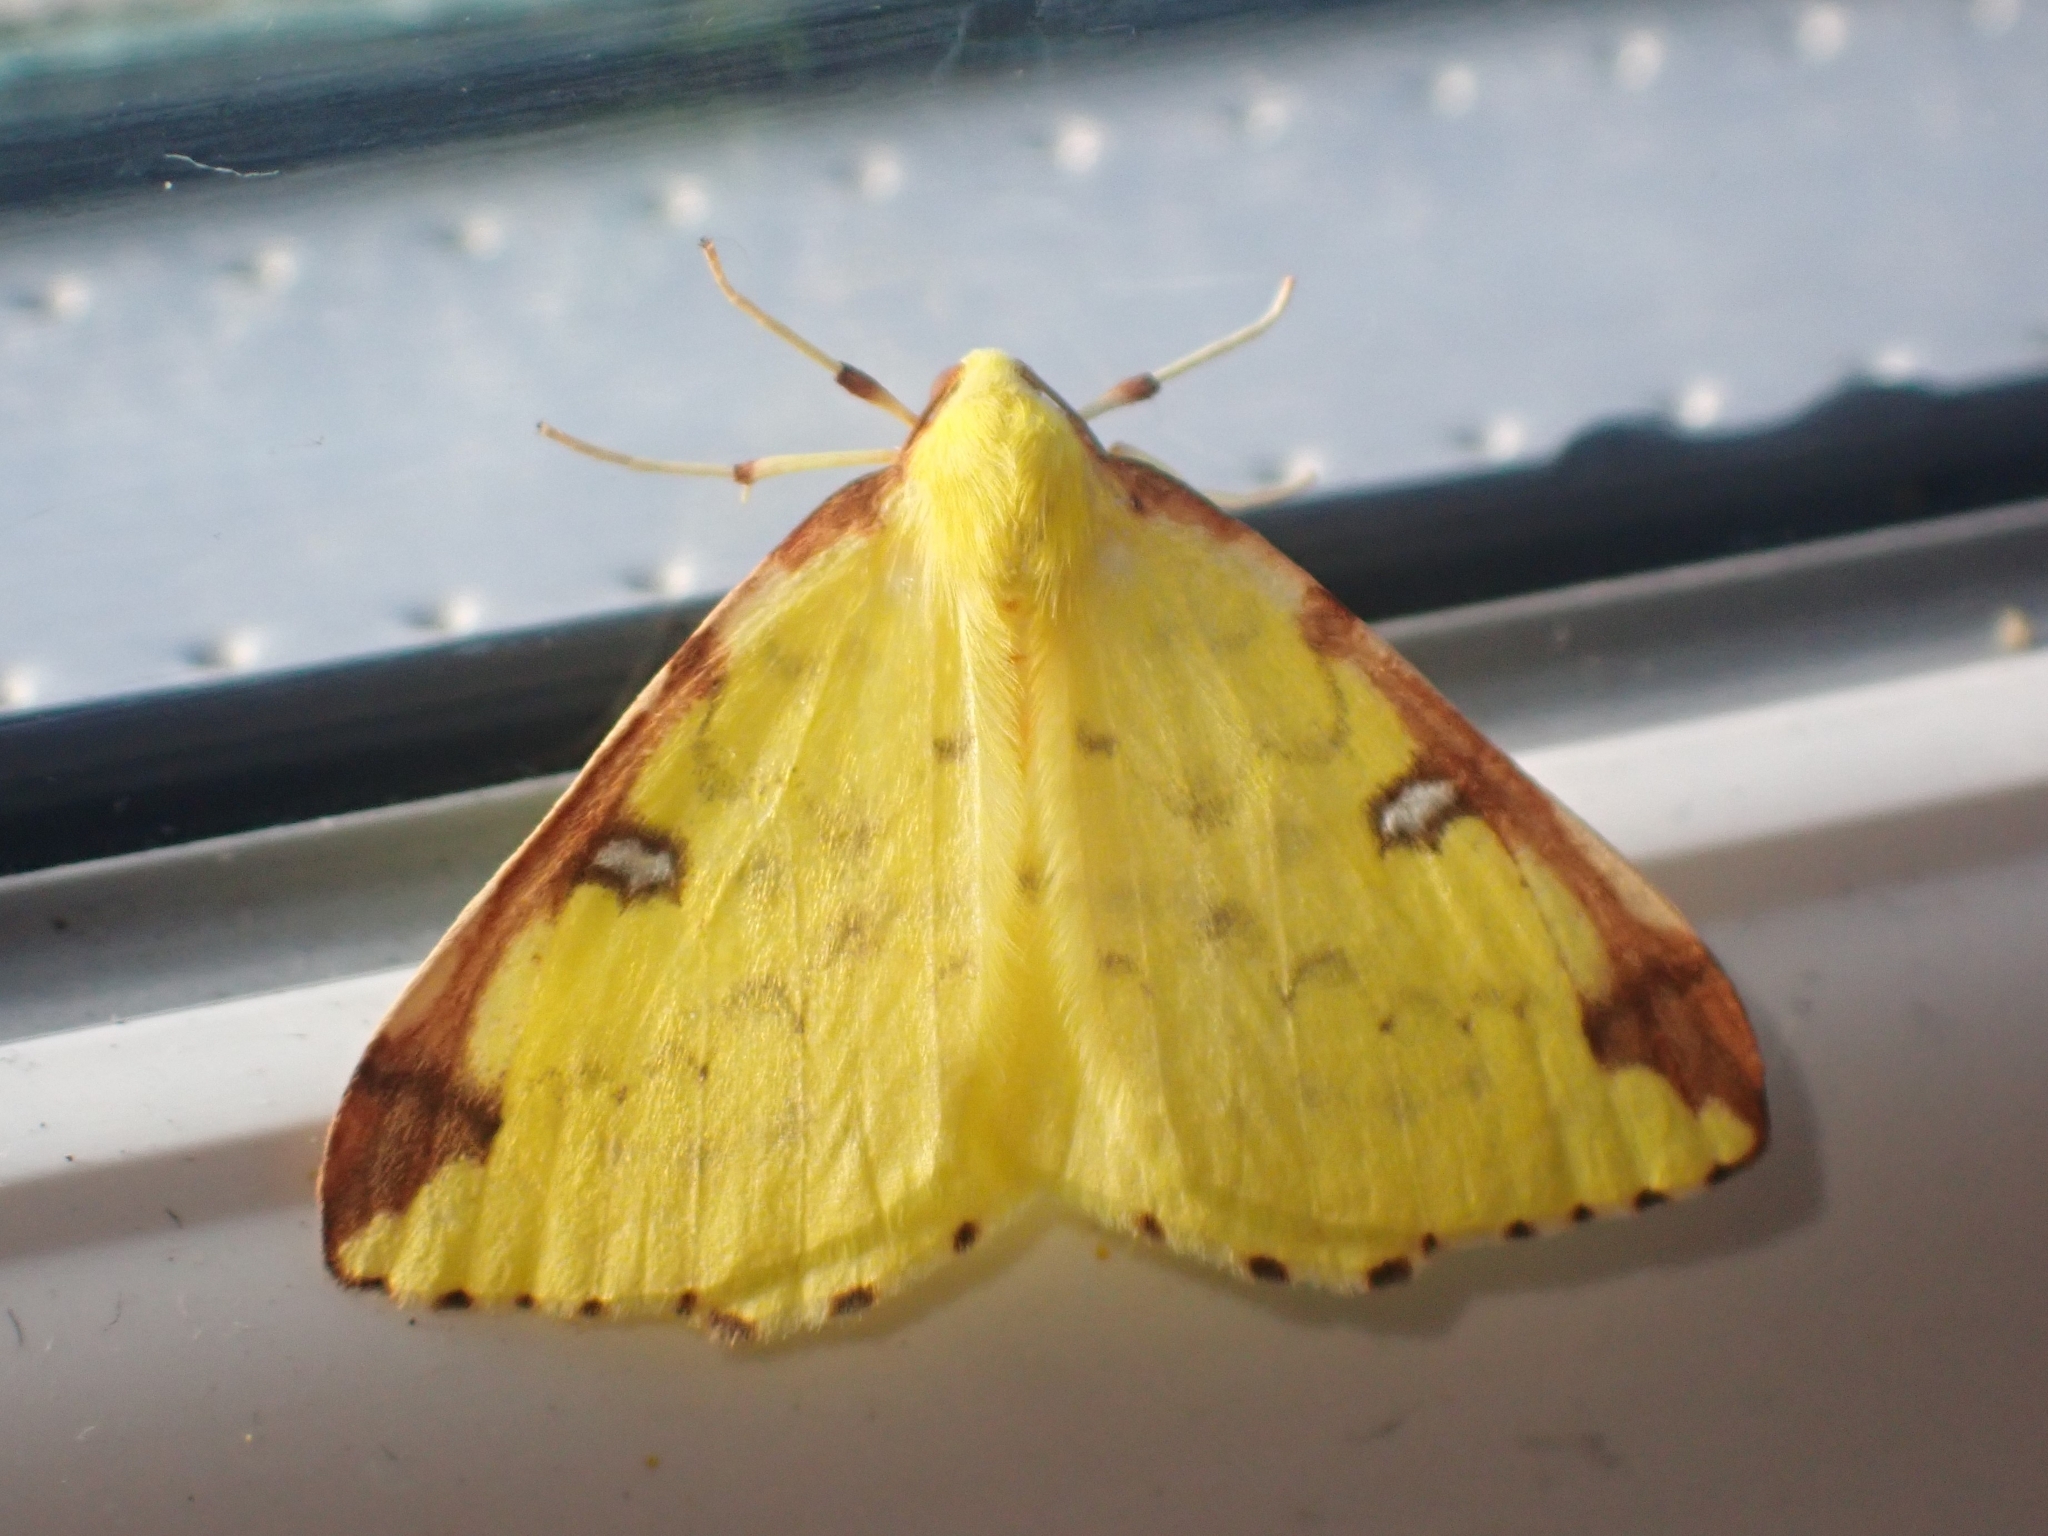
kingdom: Animalia
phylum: Arthropoda
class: Insecta
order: Lepidoptera
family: Geometridae
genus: Opisthograptis
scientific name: Opisthograptis luteolata
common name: Brimstone moth
